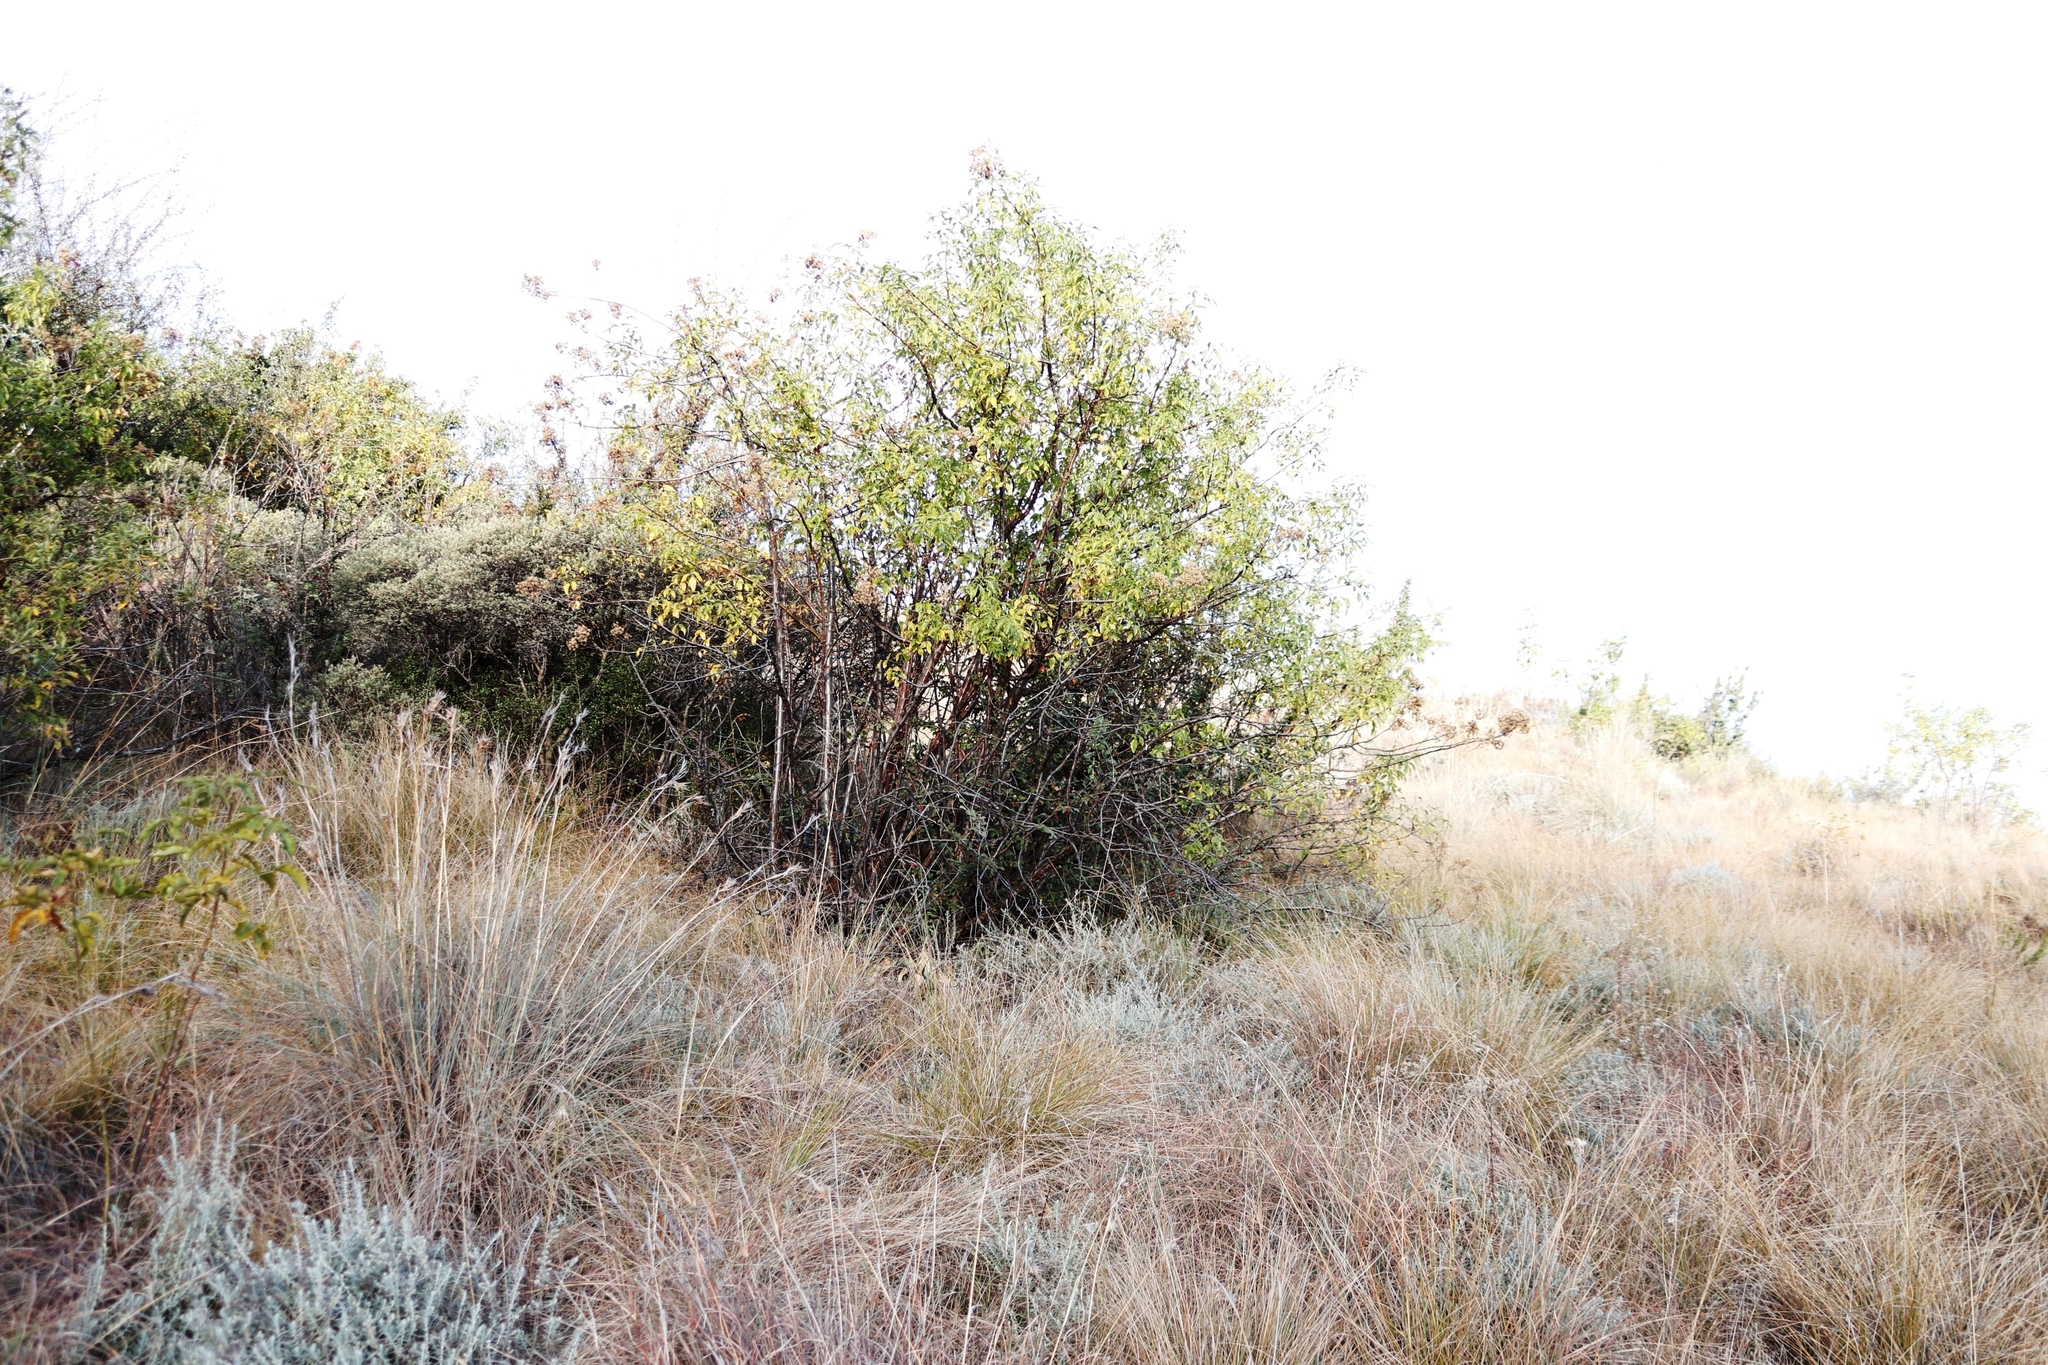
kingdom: Plantae
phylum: Tracheophyta
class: Magnoliopsida
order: Apiales
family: Apiaceae
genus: Heteromorpha
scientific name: Heteromorpha arborescens
